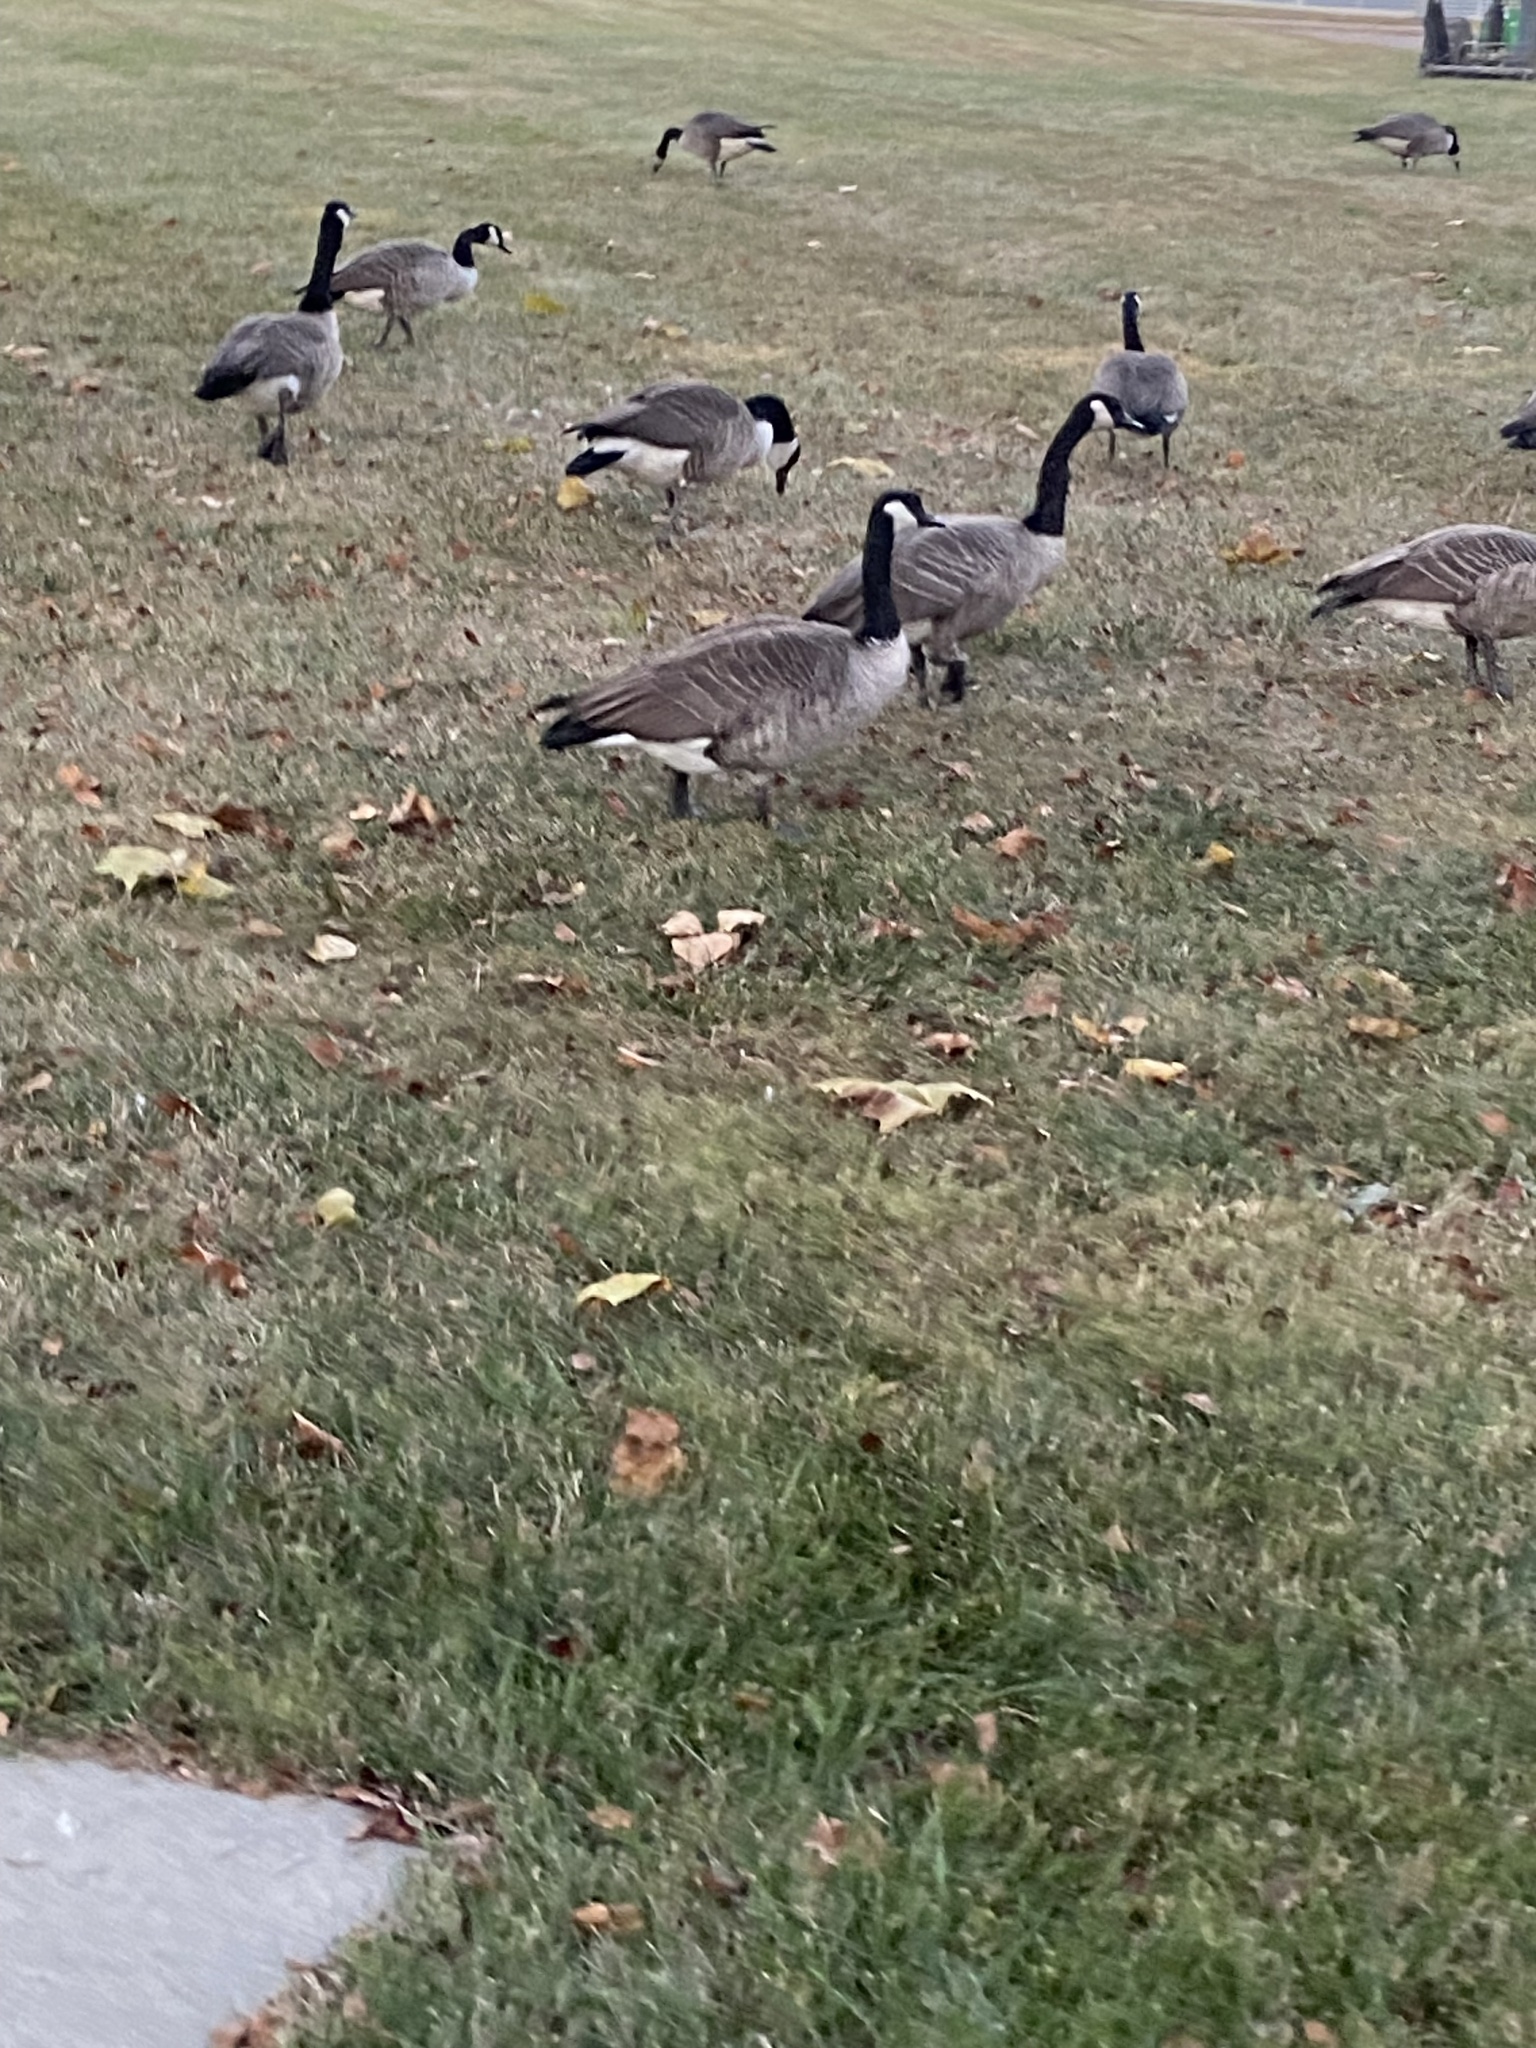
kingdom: Animalia
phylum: Chordata
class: Aves
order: Anseriformes
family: Anatidae
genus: Branta
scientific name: Branta canadensis
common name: Canada goose
